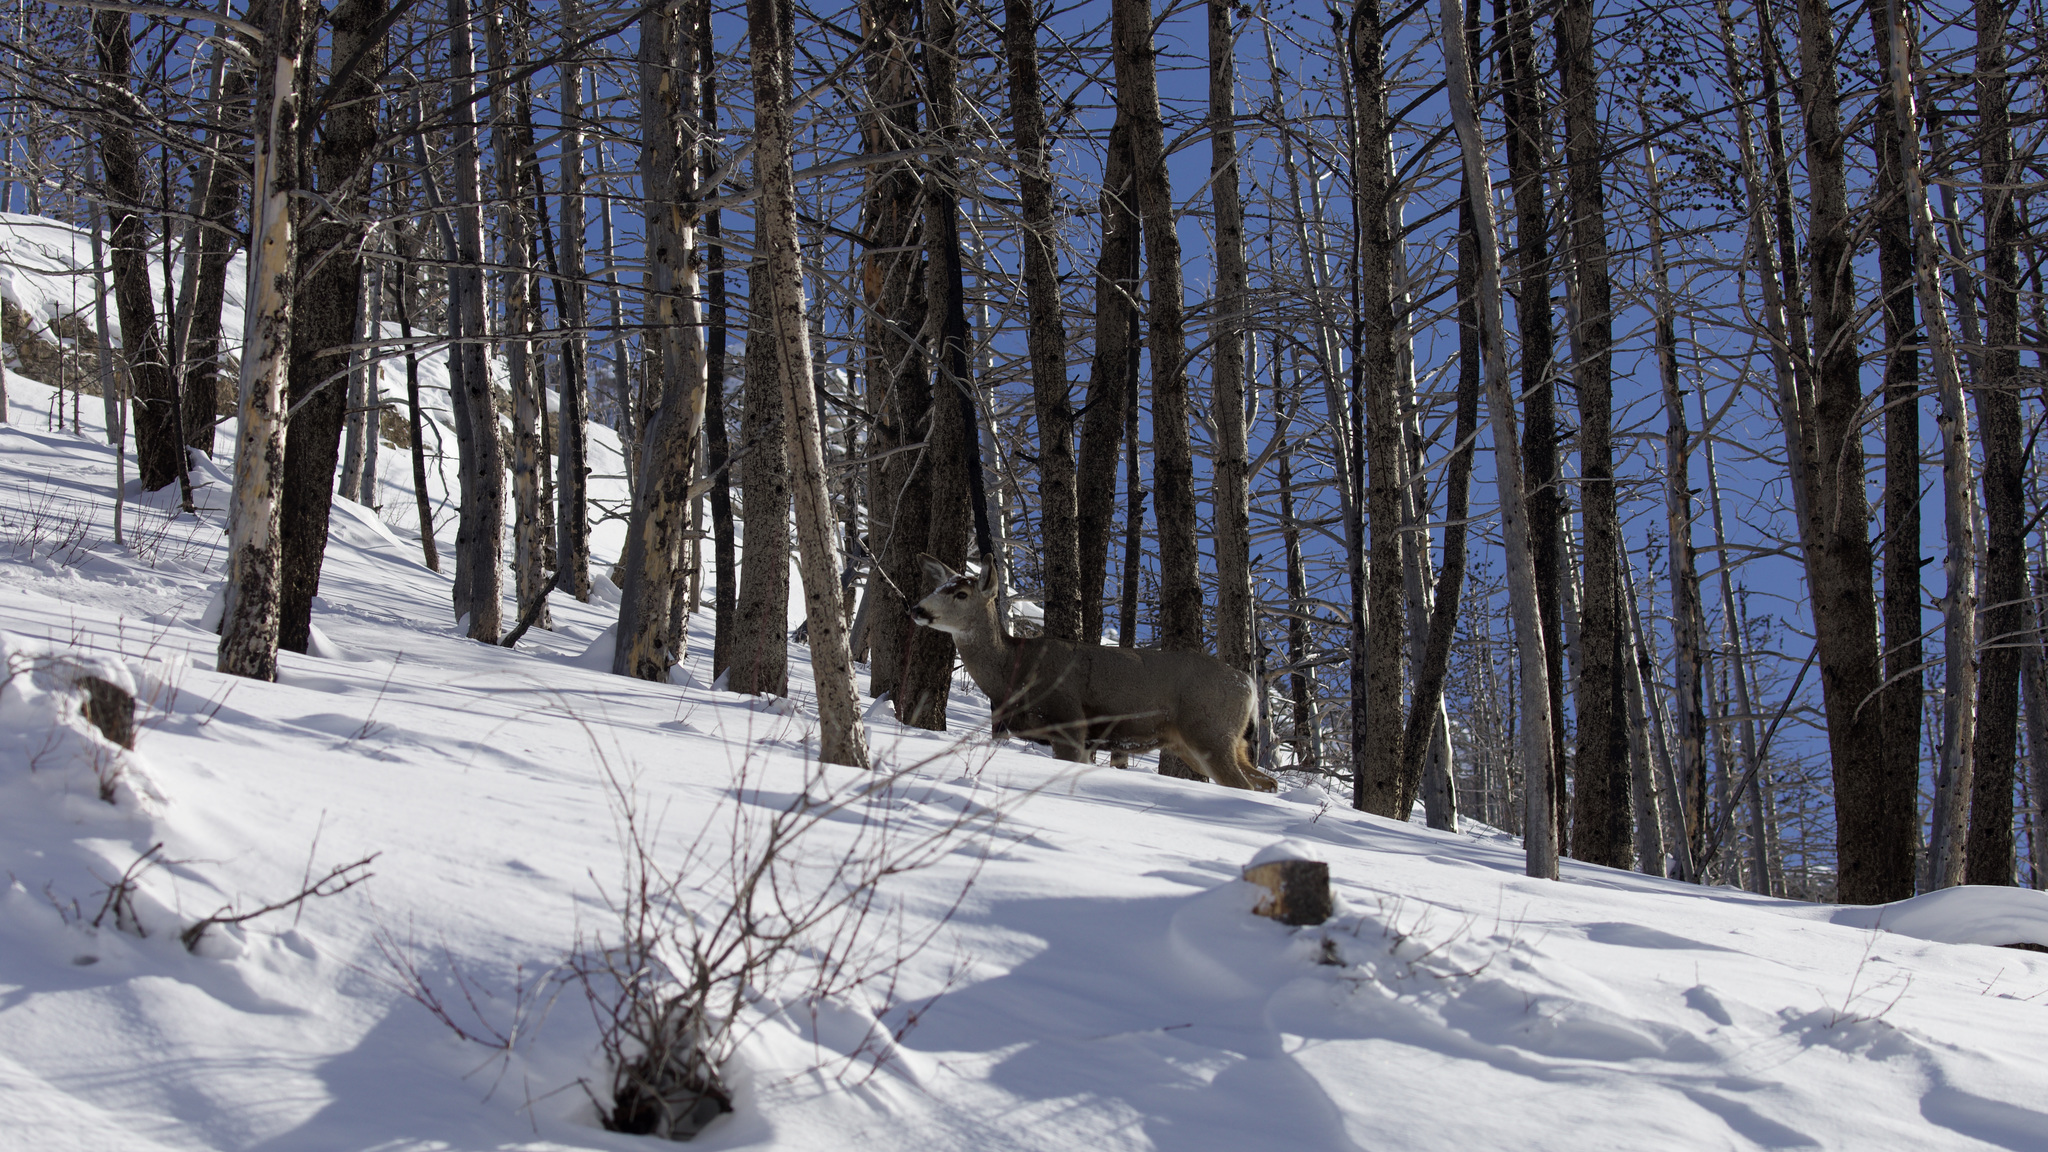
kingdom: Animalia
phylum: Chordata
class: Mammalia
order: Artiodactyla
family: Cervidae
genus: Odocoileus
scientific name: Odocoileus hemionus
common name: Mule deer
